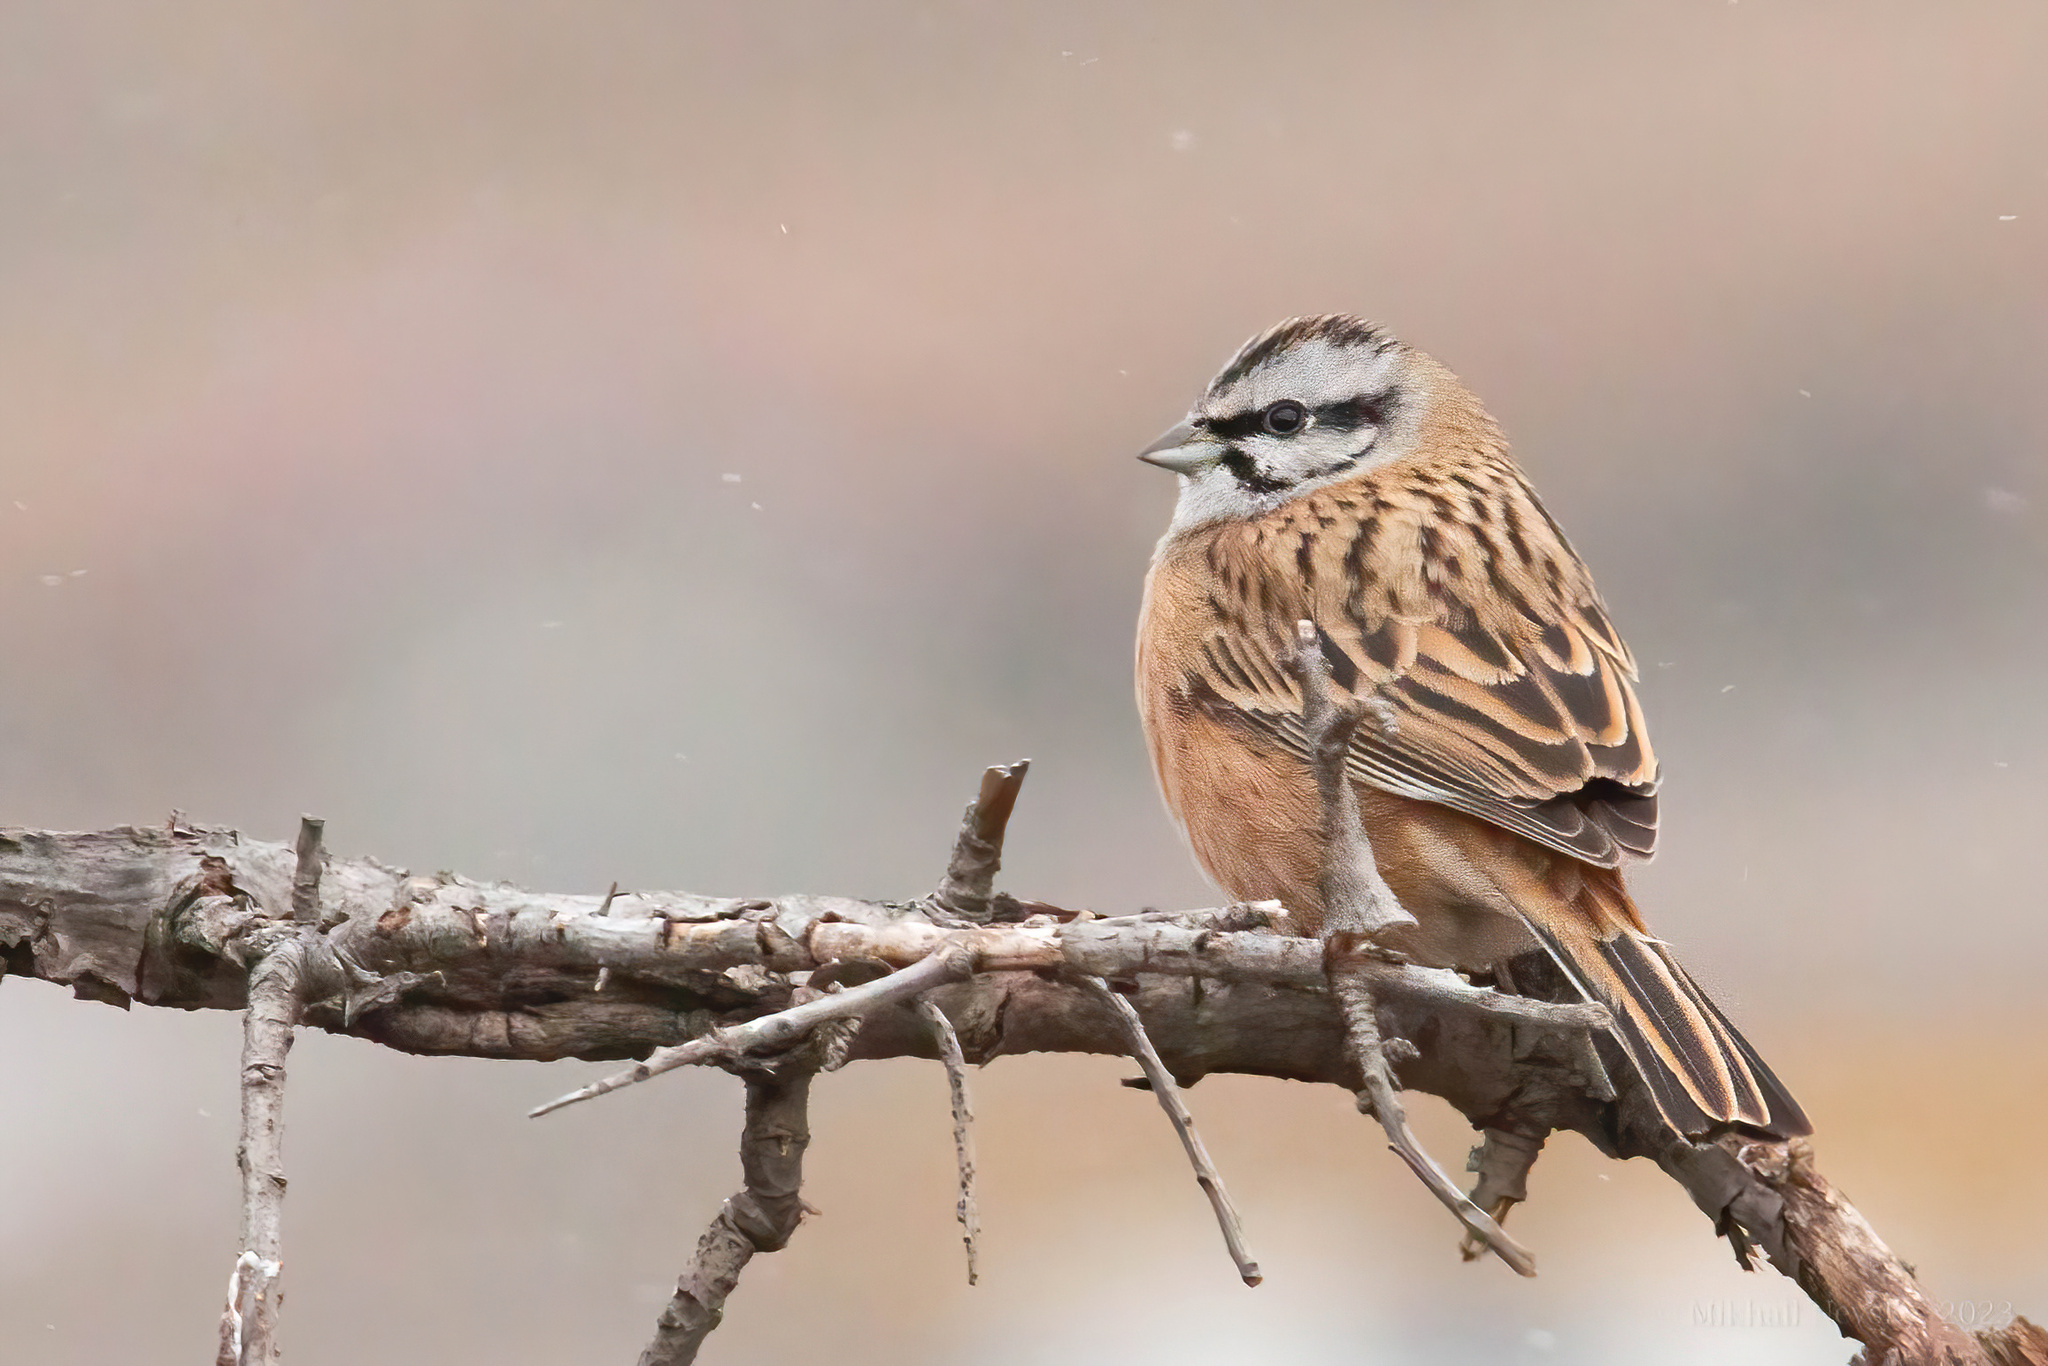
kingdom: Animalia
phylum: Chordata
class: Aves
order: Passeriformes
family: Emberizidae
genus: Emberiza
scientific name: Emberiza cia
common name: Rock bunting
